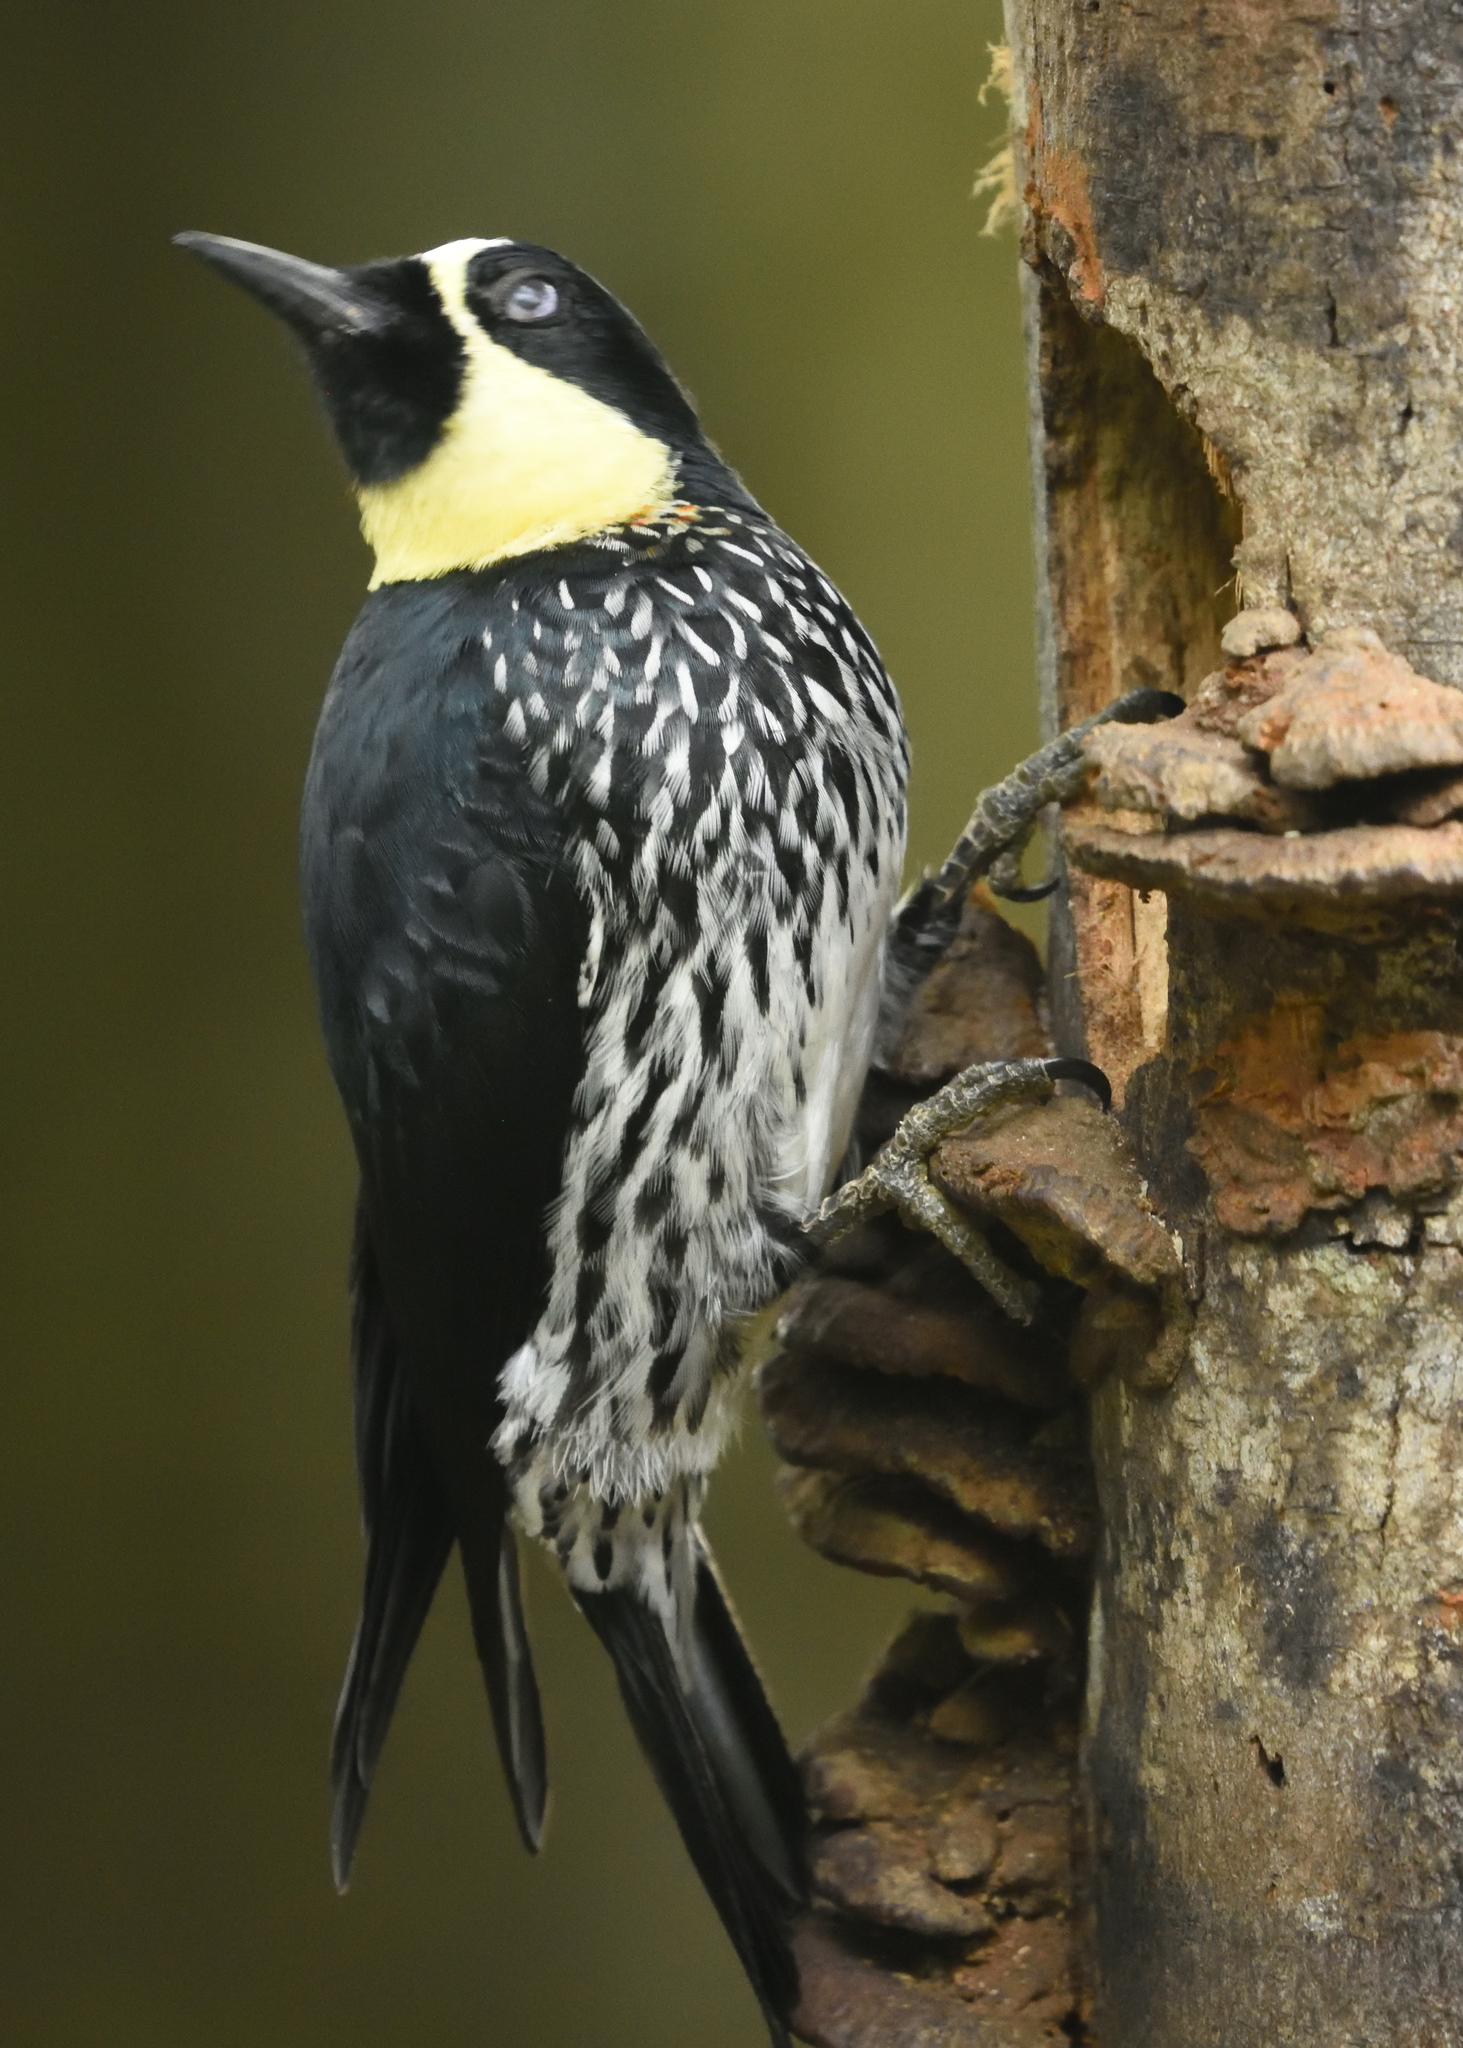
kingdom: Animalia
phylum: Chordata
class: Aves
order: Piciformes
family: Picidae
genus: Melanerpes
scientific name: Melanerpes formicivorus
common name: Acorn woodpecker
